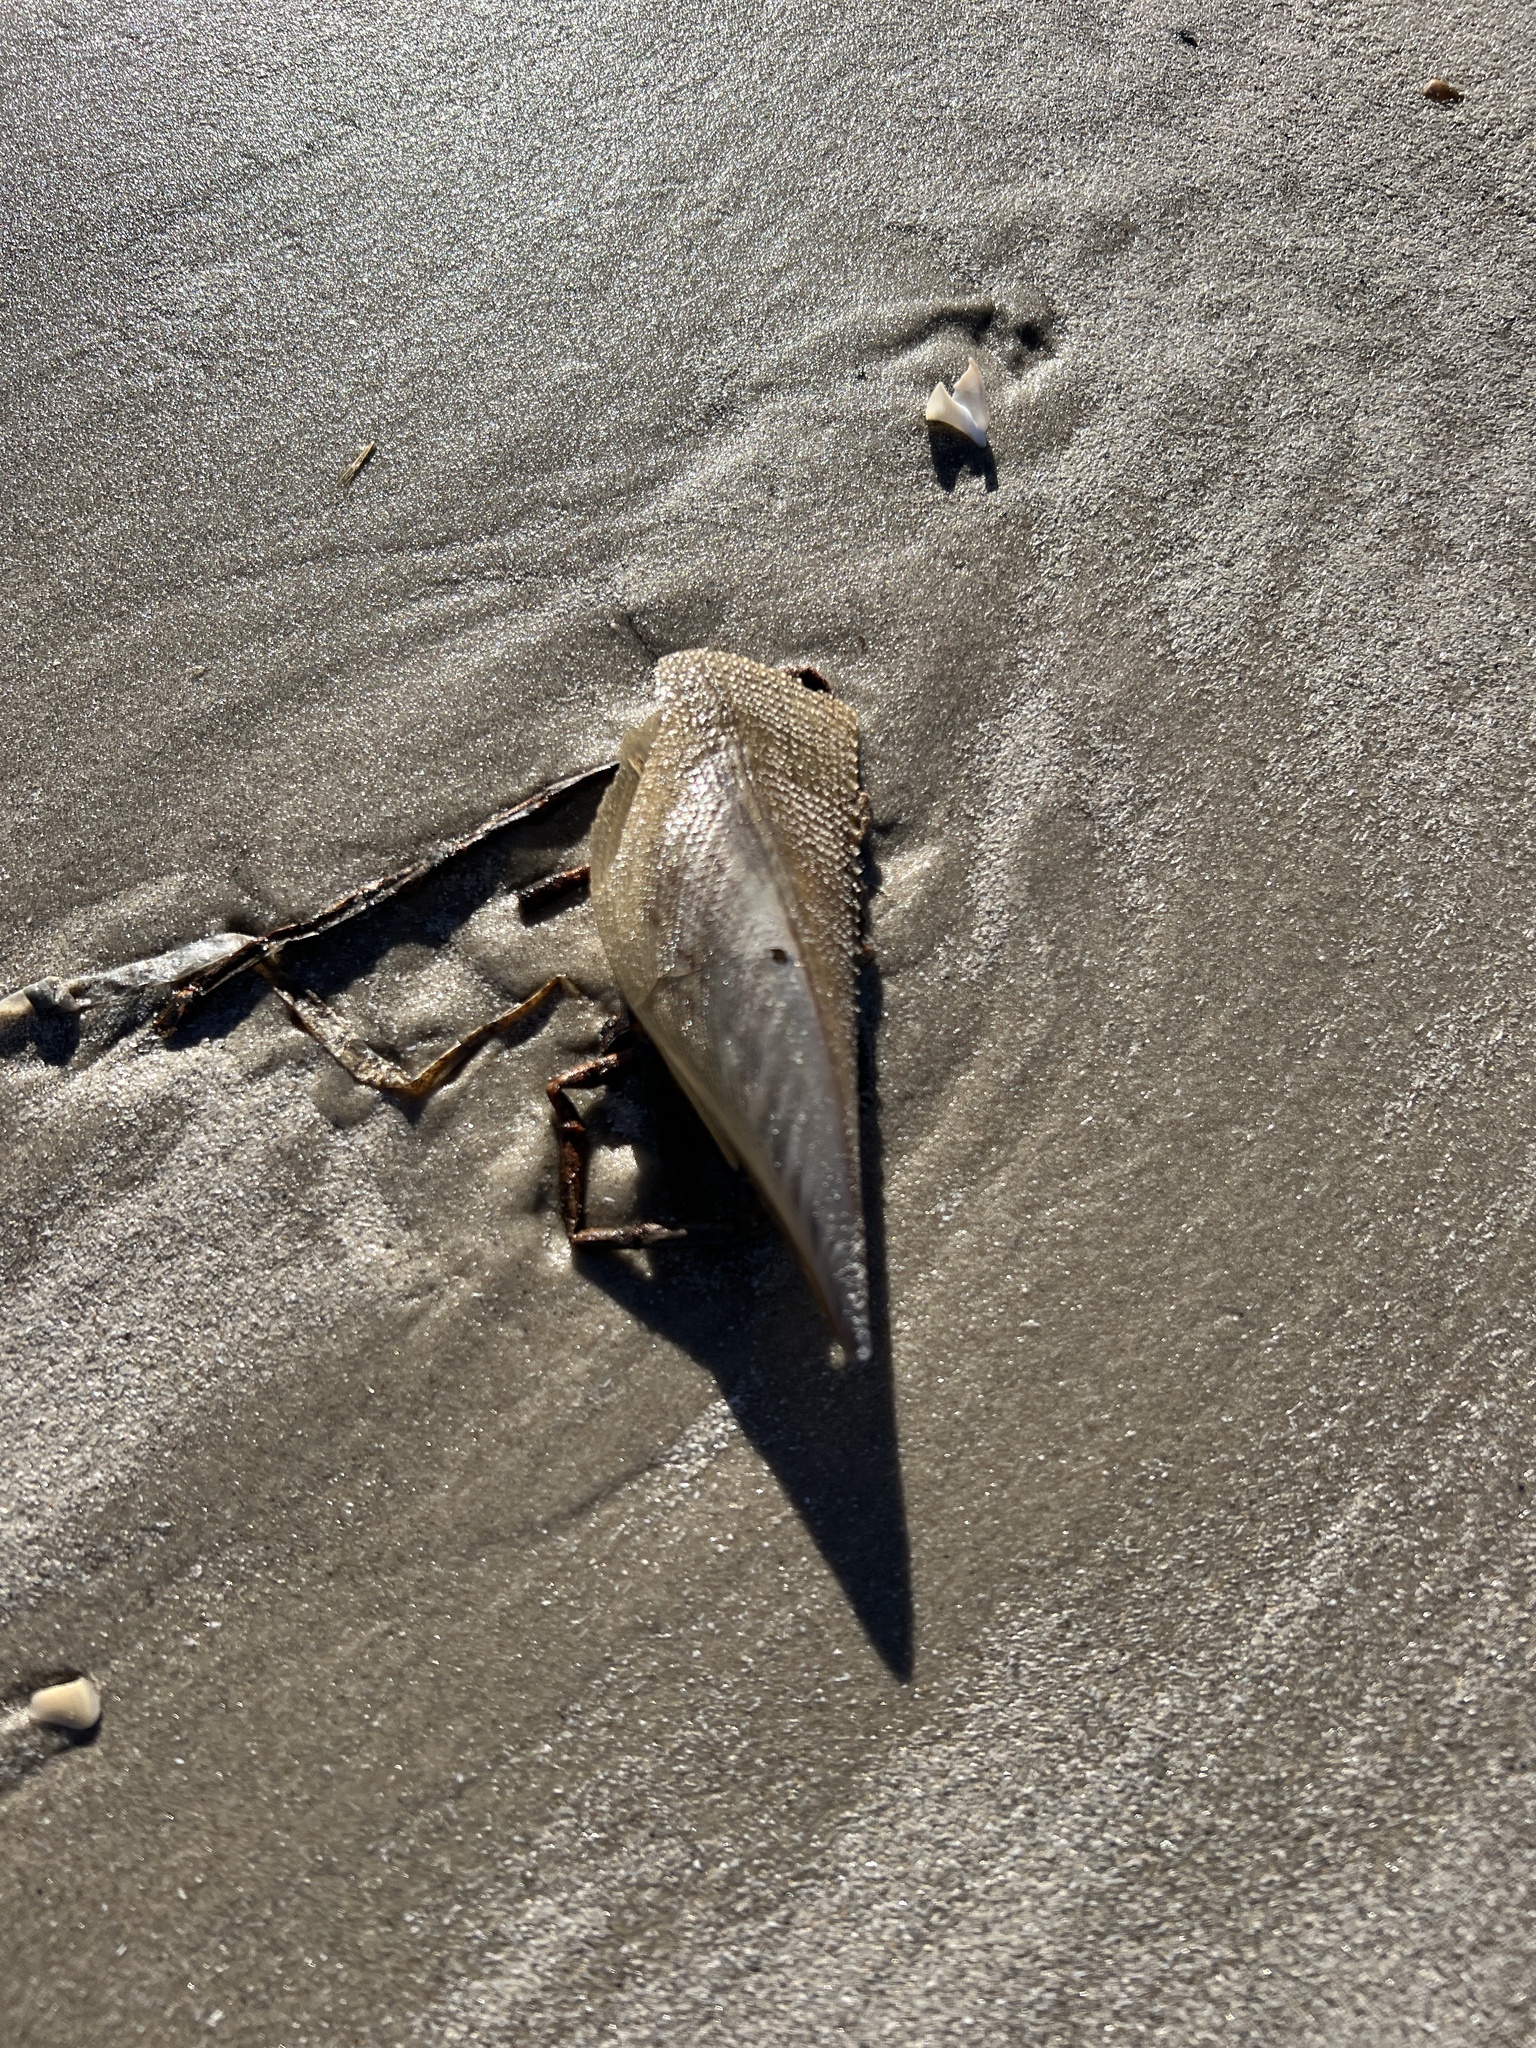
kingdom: Animalia
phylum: Mollusca
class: Bivalvia
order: Ostreida
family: Pinnidae
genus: Atrina
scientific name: Atrina serrata
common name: Saw-toothed penshell
